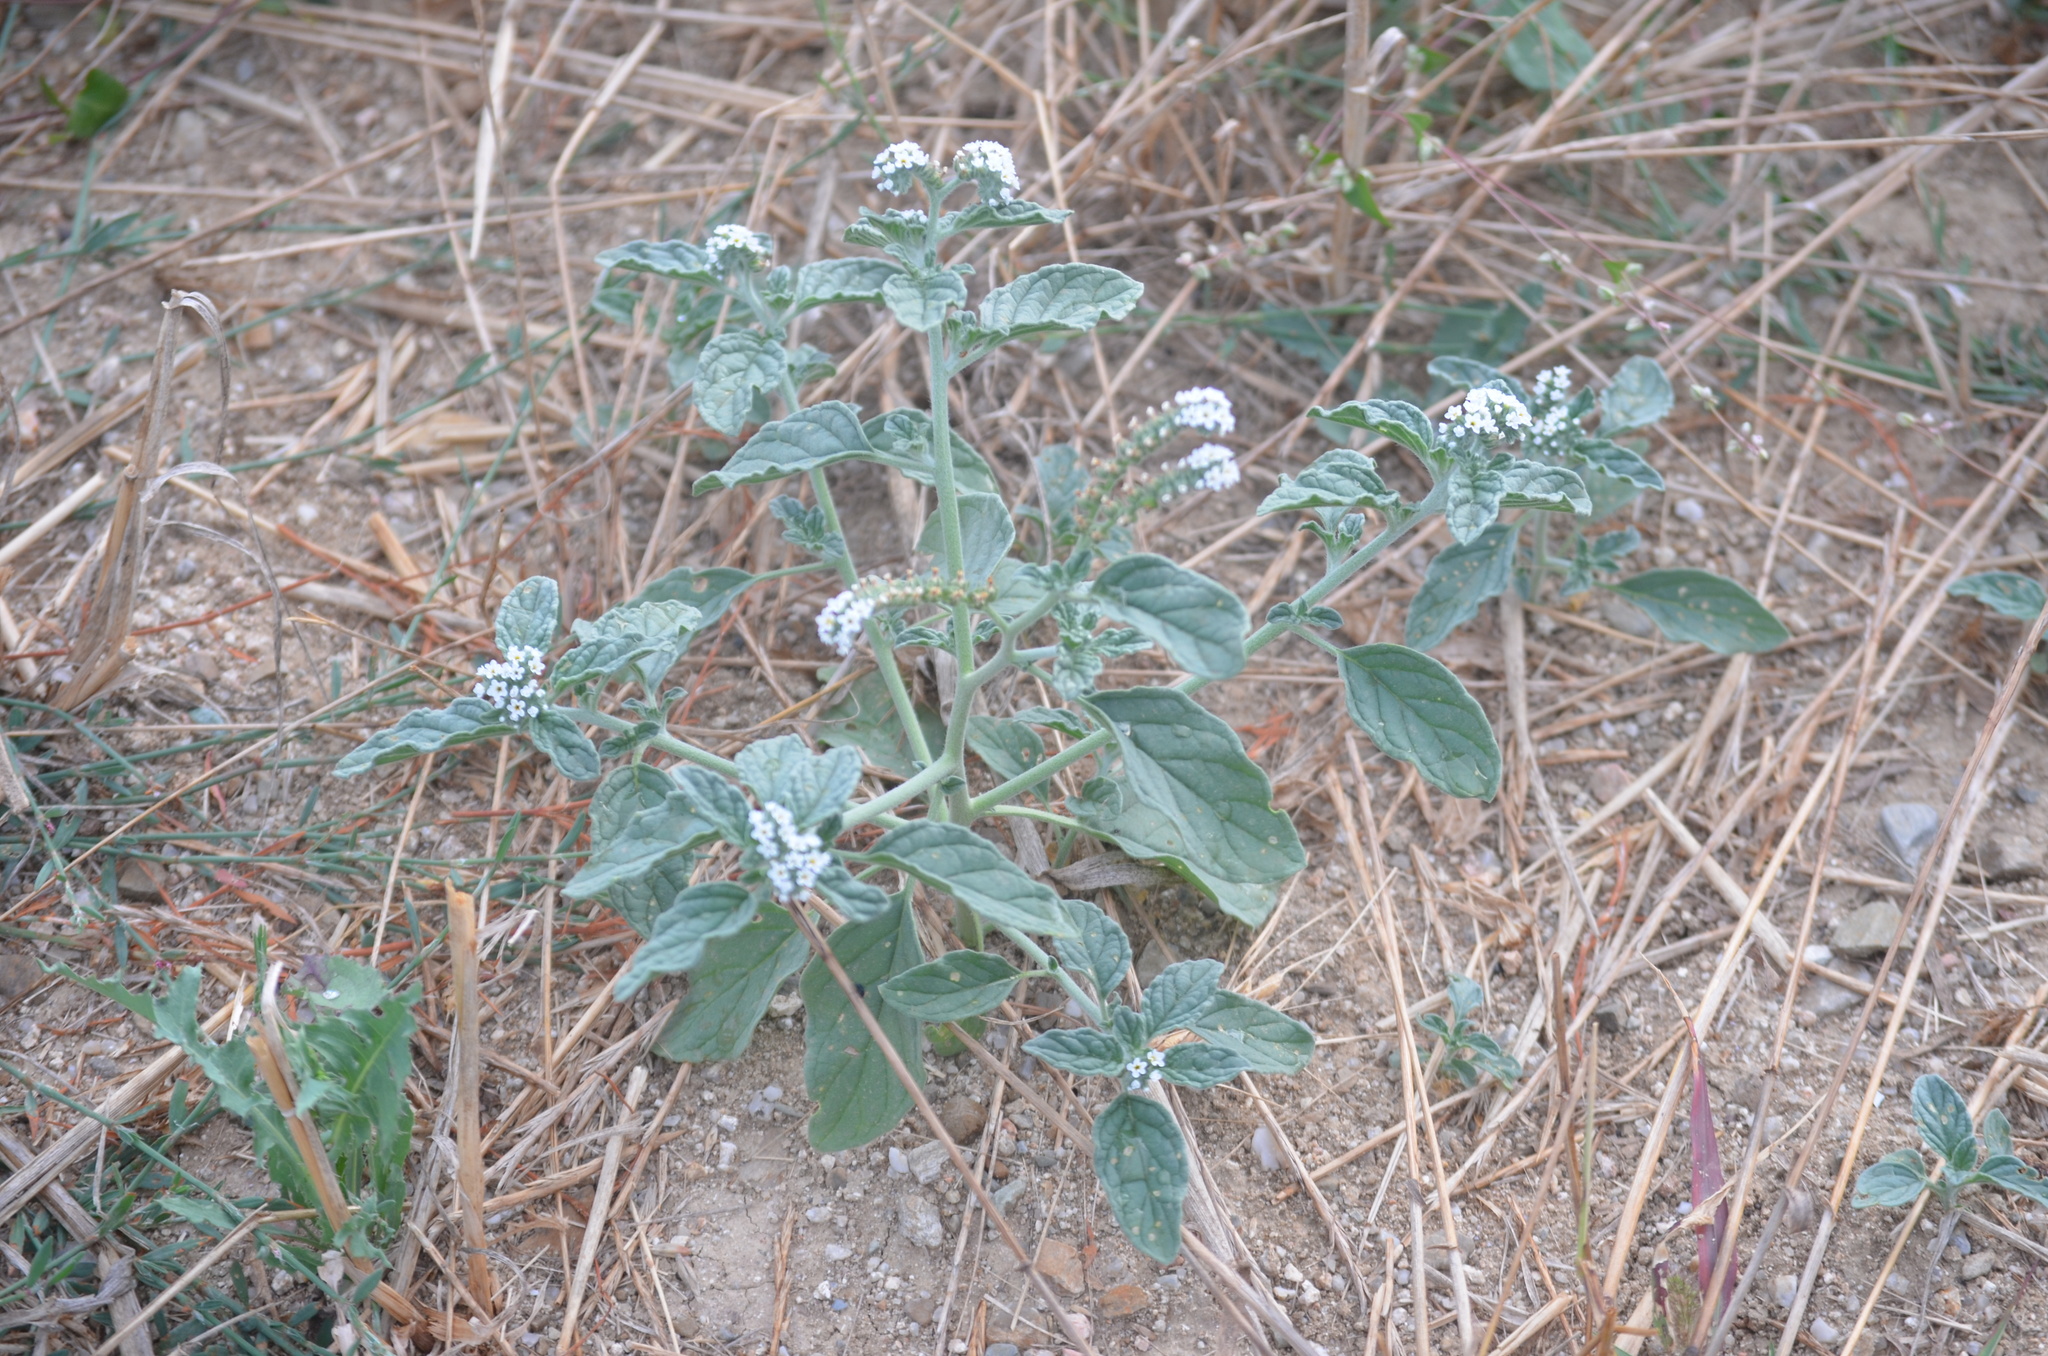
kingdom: Plantae
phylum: Tracheophyta
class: Magnoliopsida
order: Boraginales
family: Heliotropiaceae
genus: Heliotropium
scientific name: Heliotropium europaeum
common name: European heliotrope
